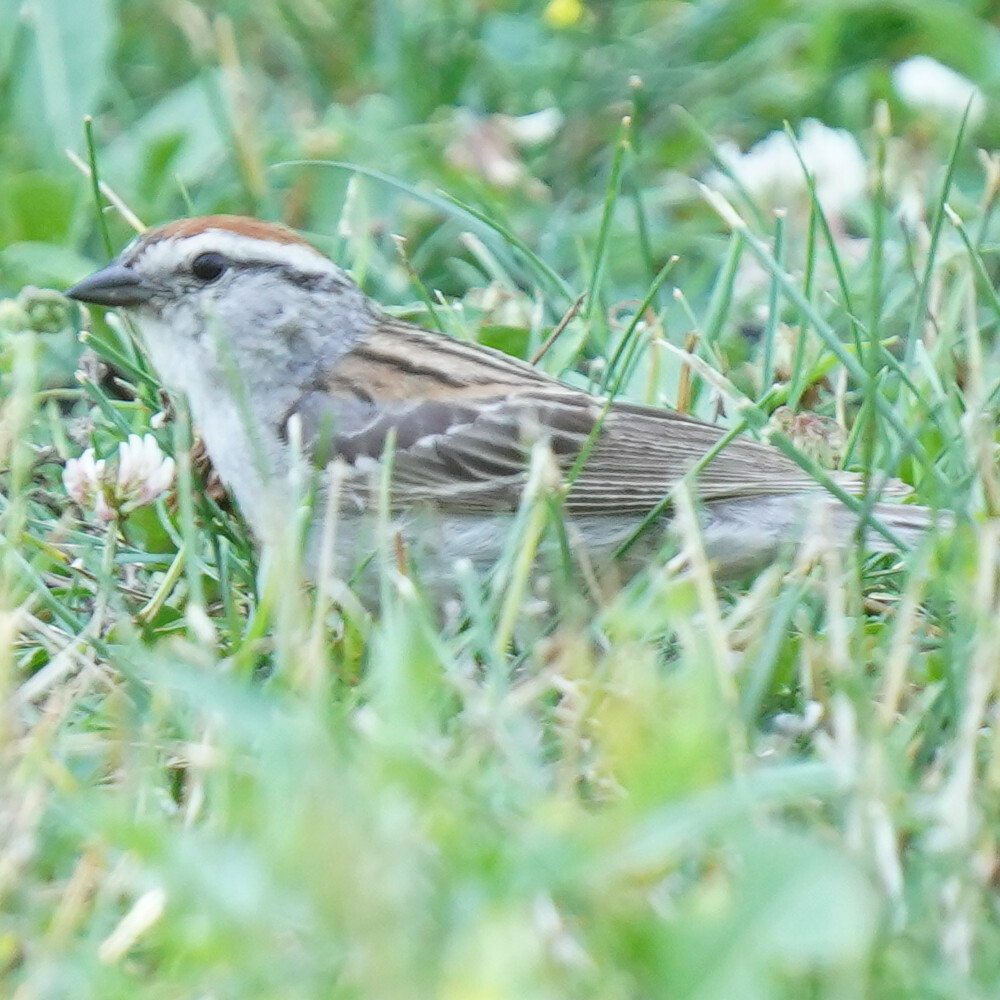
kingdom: Animalia
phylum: Chordata
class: Aves
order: Passeriformes
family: Passerellidae
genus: Spizella
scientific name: Spizella passerina
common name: Chipping sparrow
